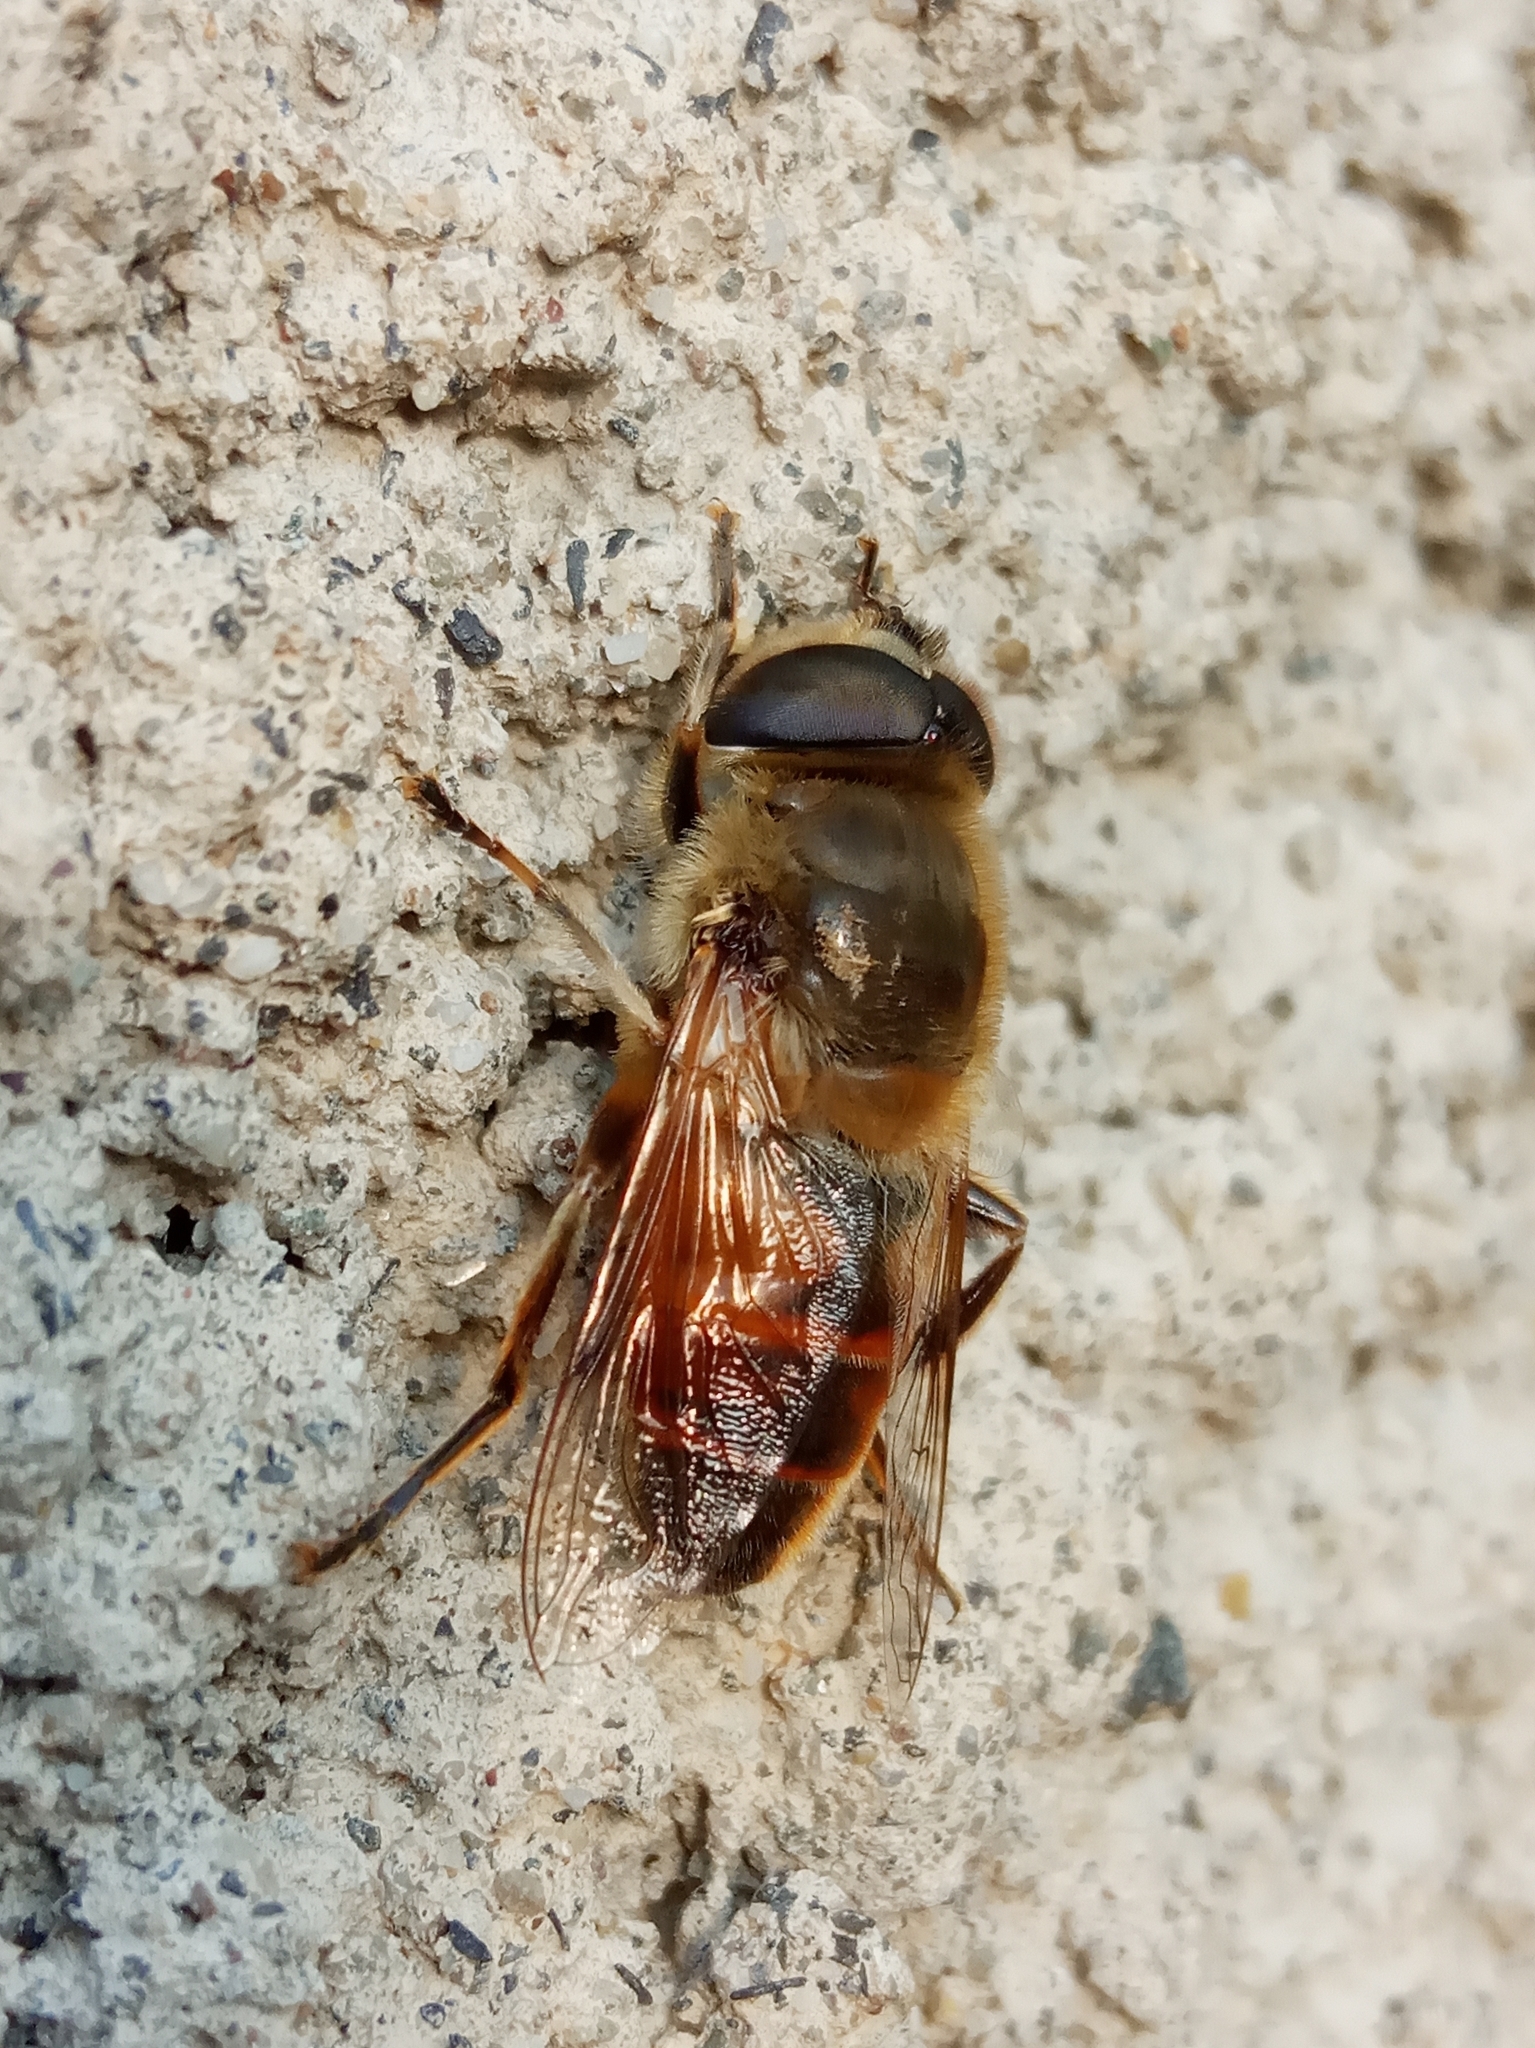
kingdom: Animalia
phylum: Arthropoda
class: Insecta
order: Diptera
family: Syrphidae
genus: Eristalis
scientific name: Eristalis tenax
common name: Drone fly
